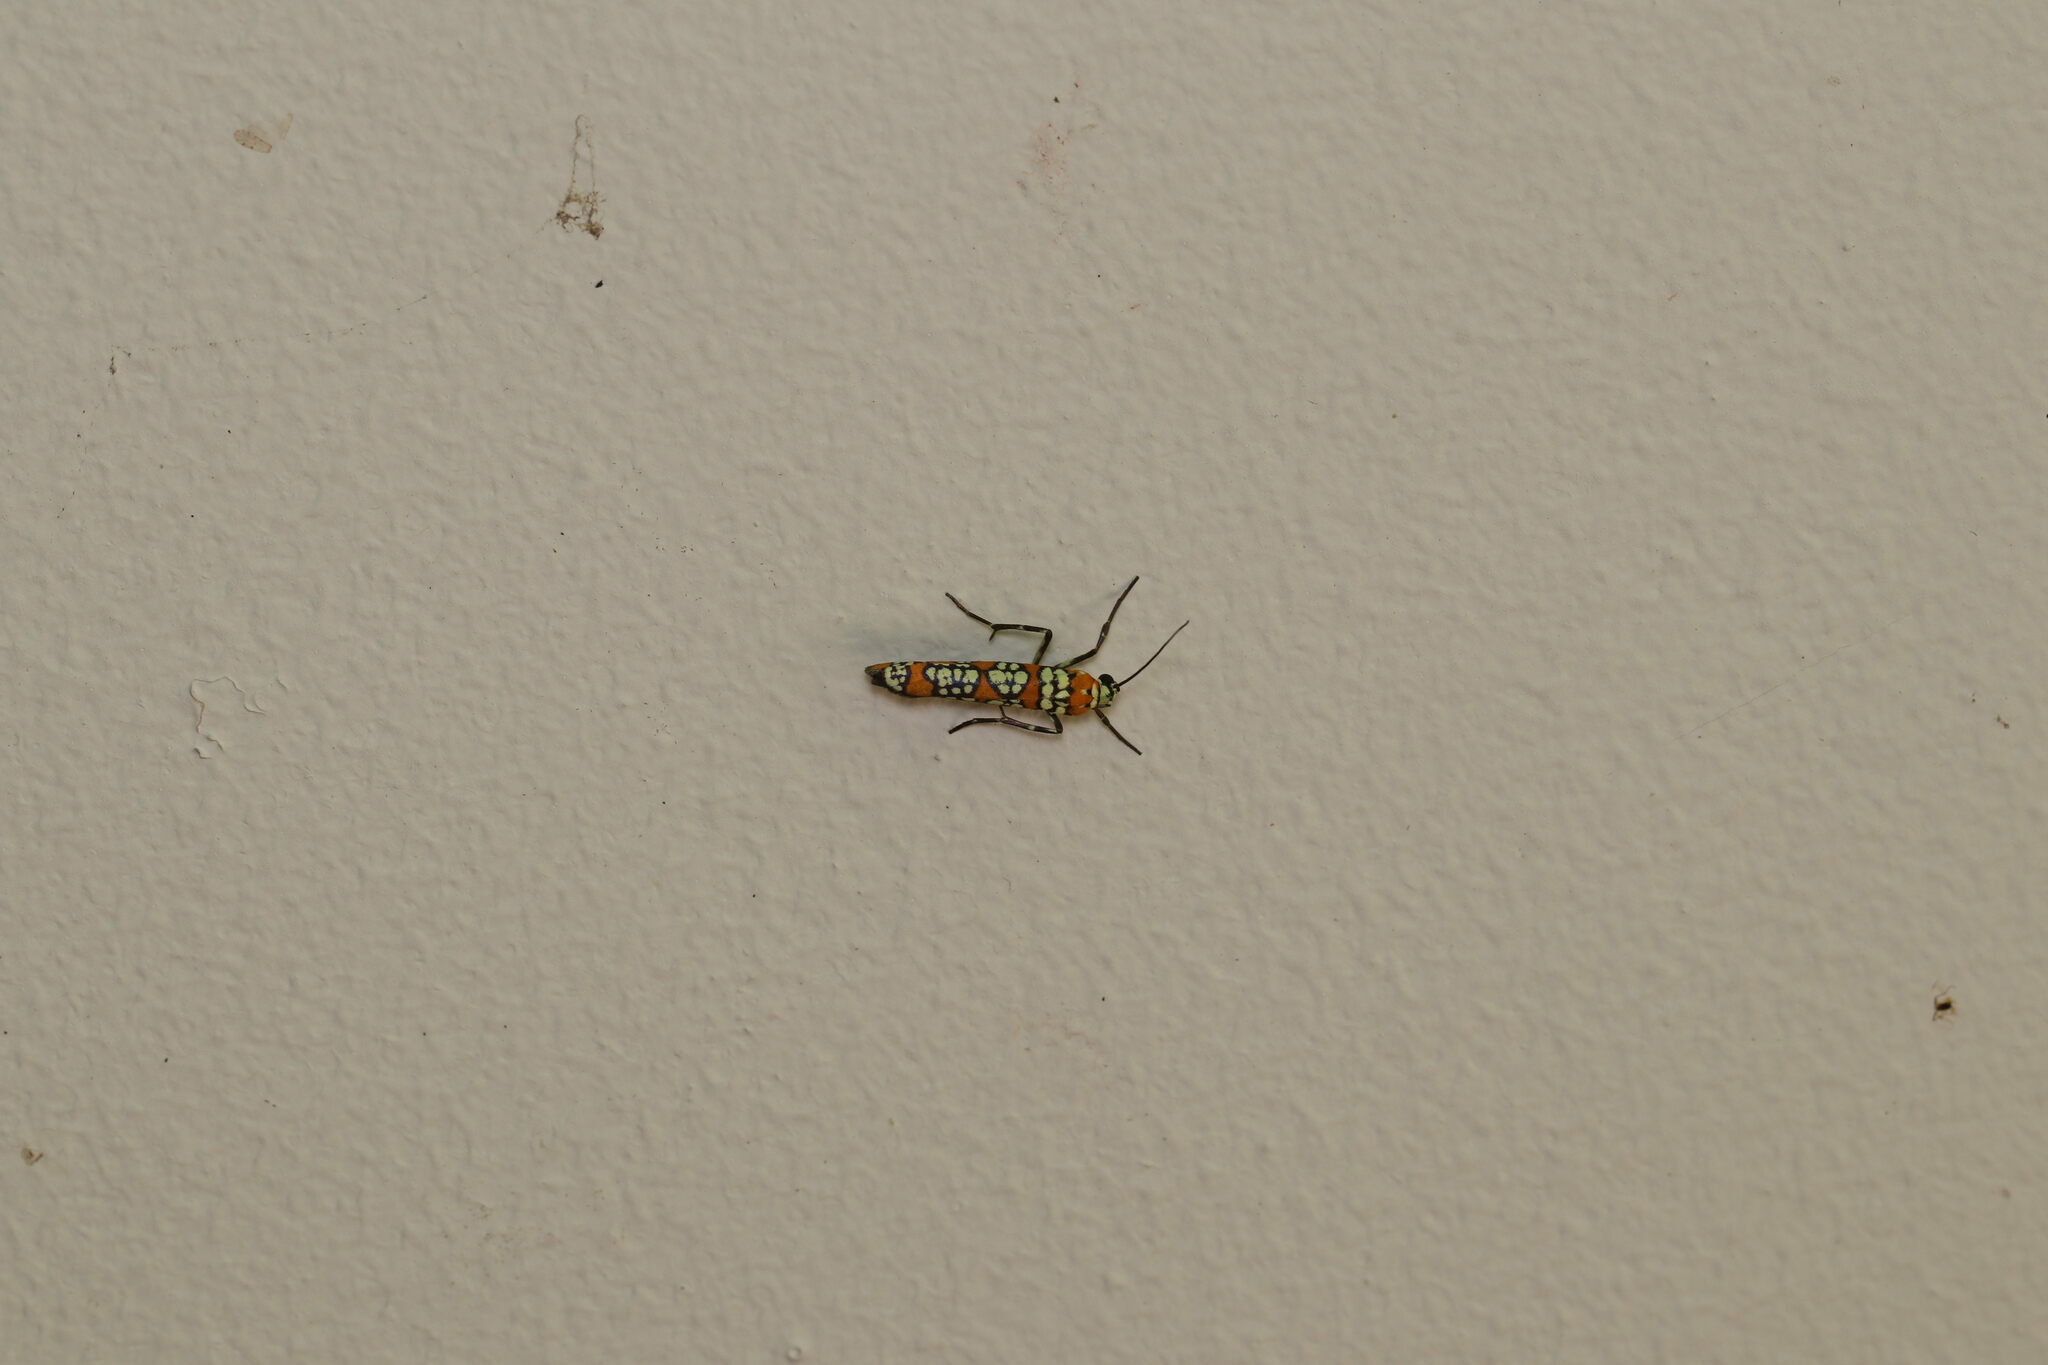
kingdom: Animalia
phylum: Arthropoda
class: Insecta
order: Lepidoptera
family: Attevidae
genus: Atteva
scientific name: Atteva punctella
